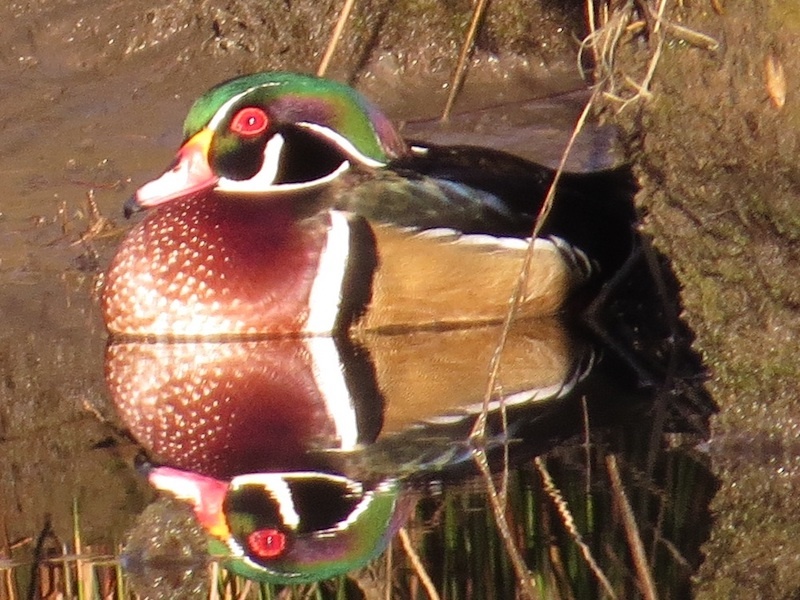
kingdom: Animalia
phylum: Chordata
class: Aves
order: Anseriformes
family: Anatidae
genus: Aix
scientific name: Aix sponsa
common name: Wood duck
